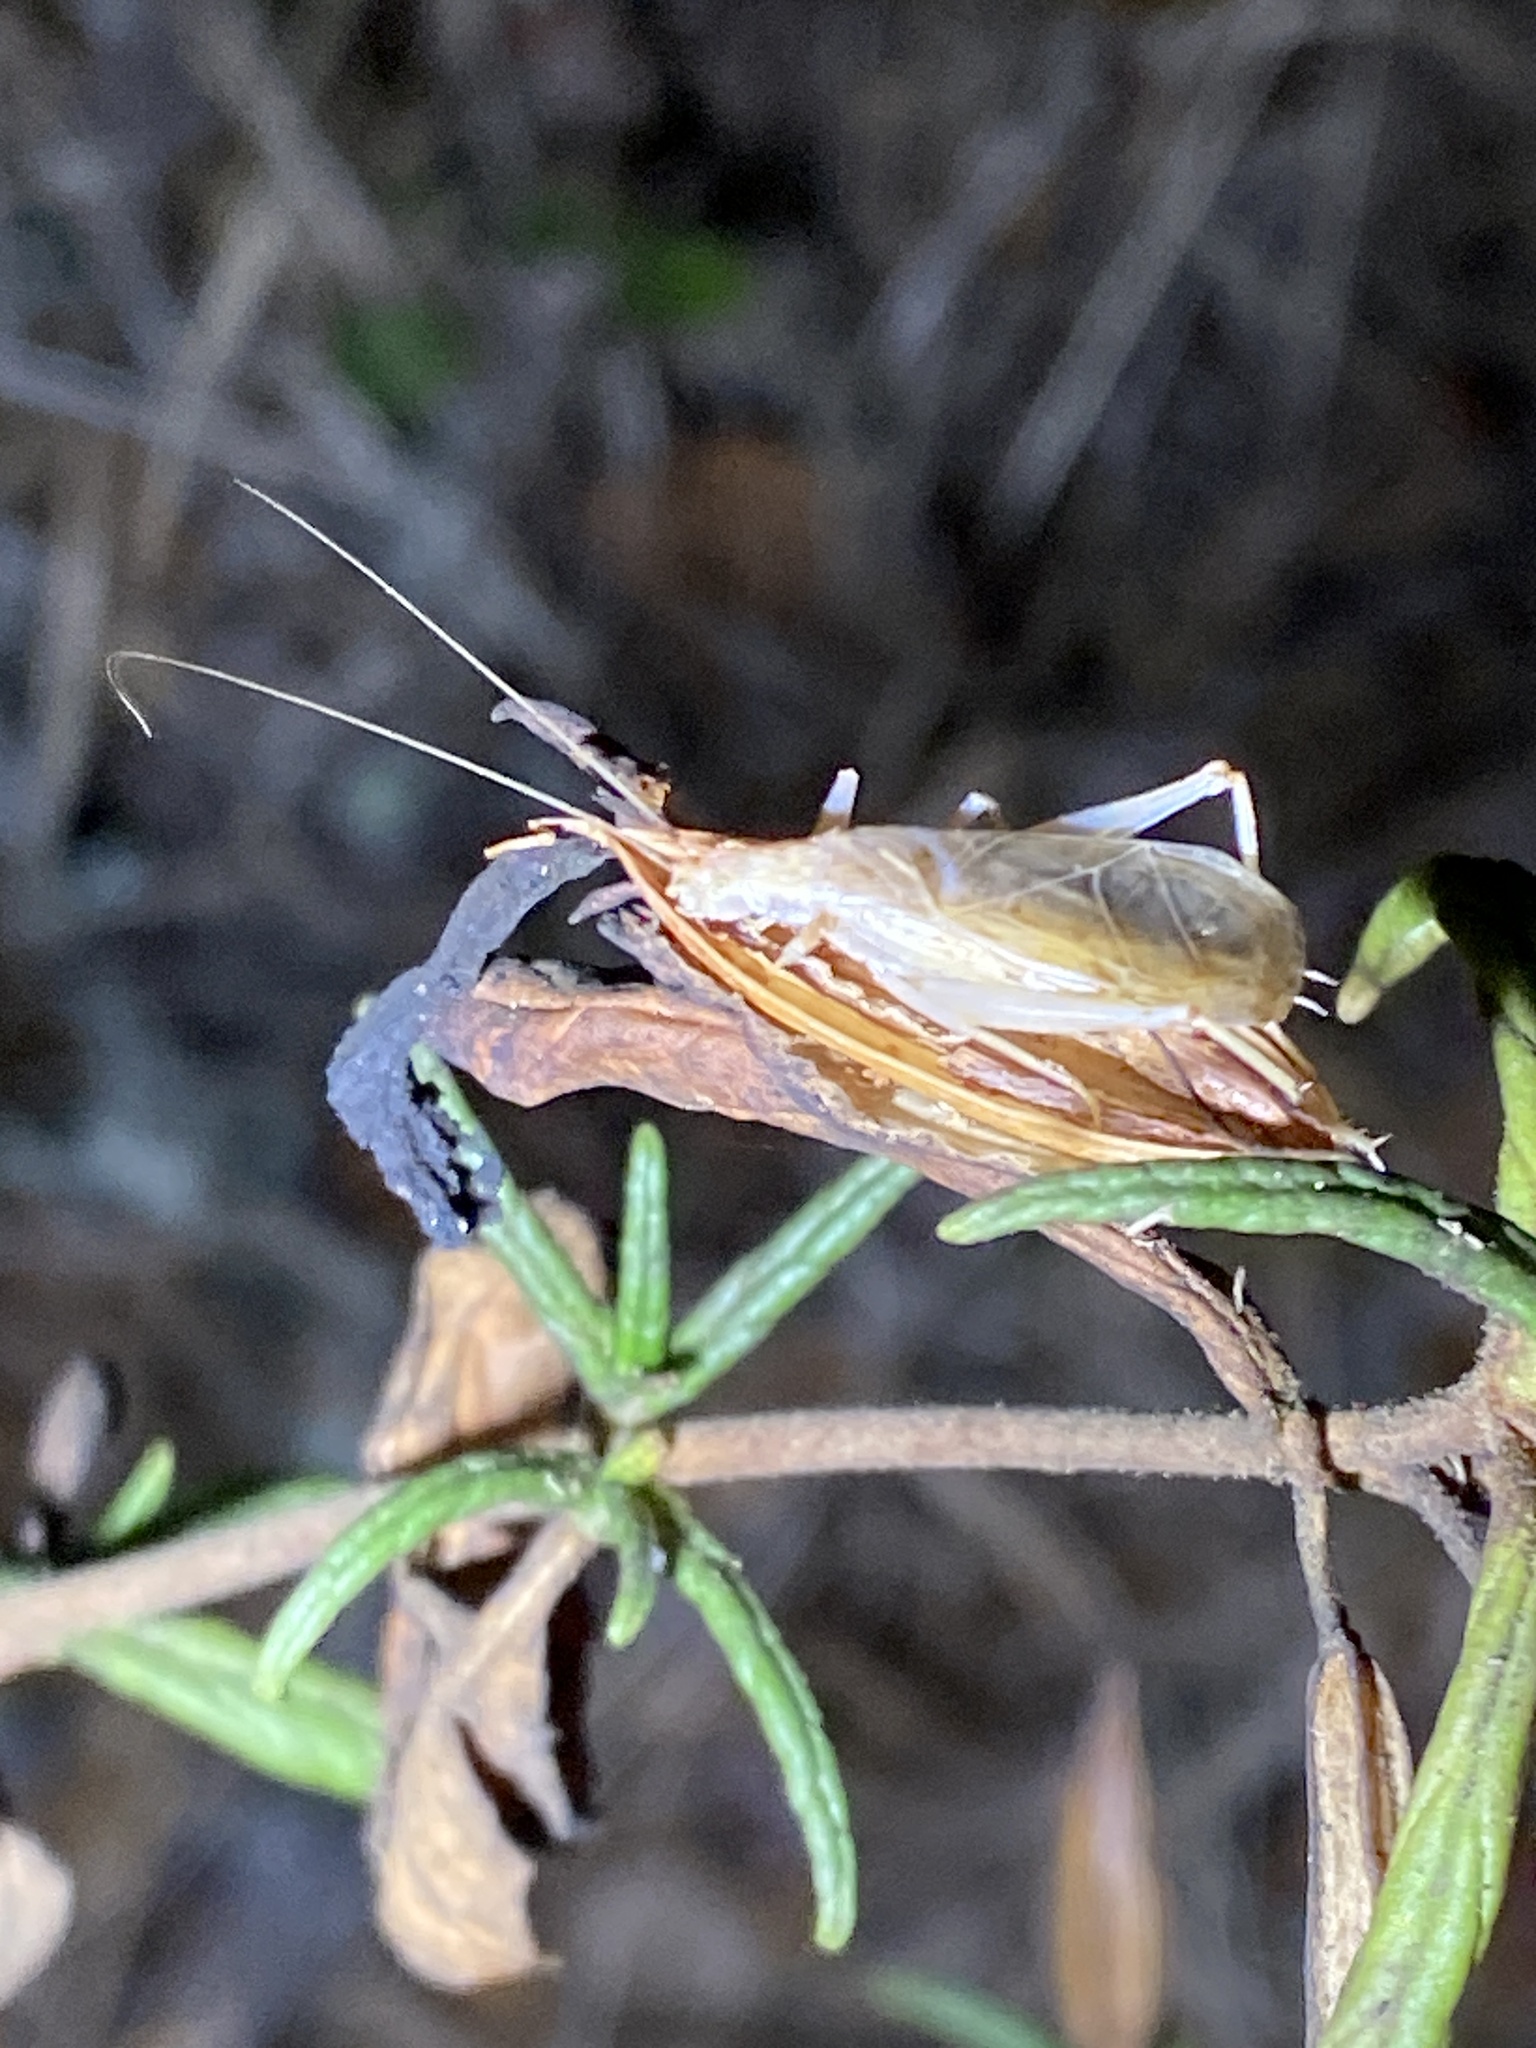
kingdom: Animalia
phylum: Arthropoda
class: Insecta
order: Orthoptera
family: Gryllidae
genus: Oecanthus
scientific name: Oecanthus californicus
